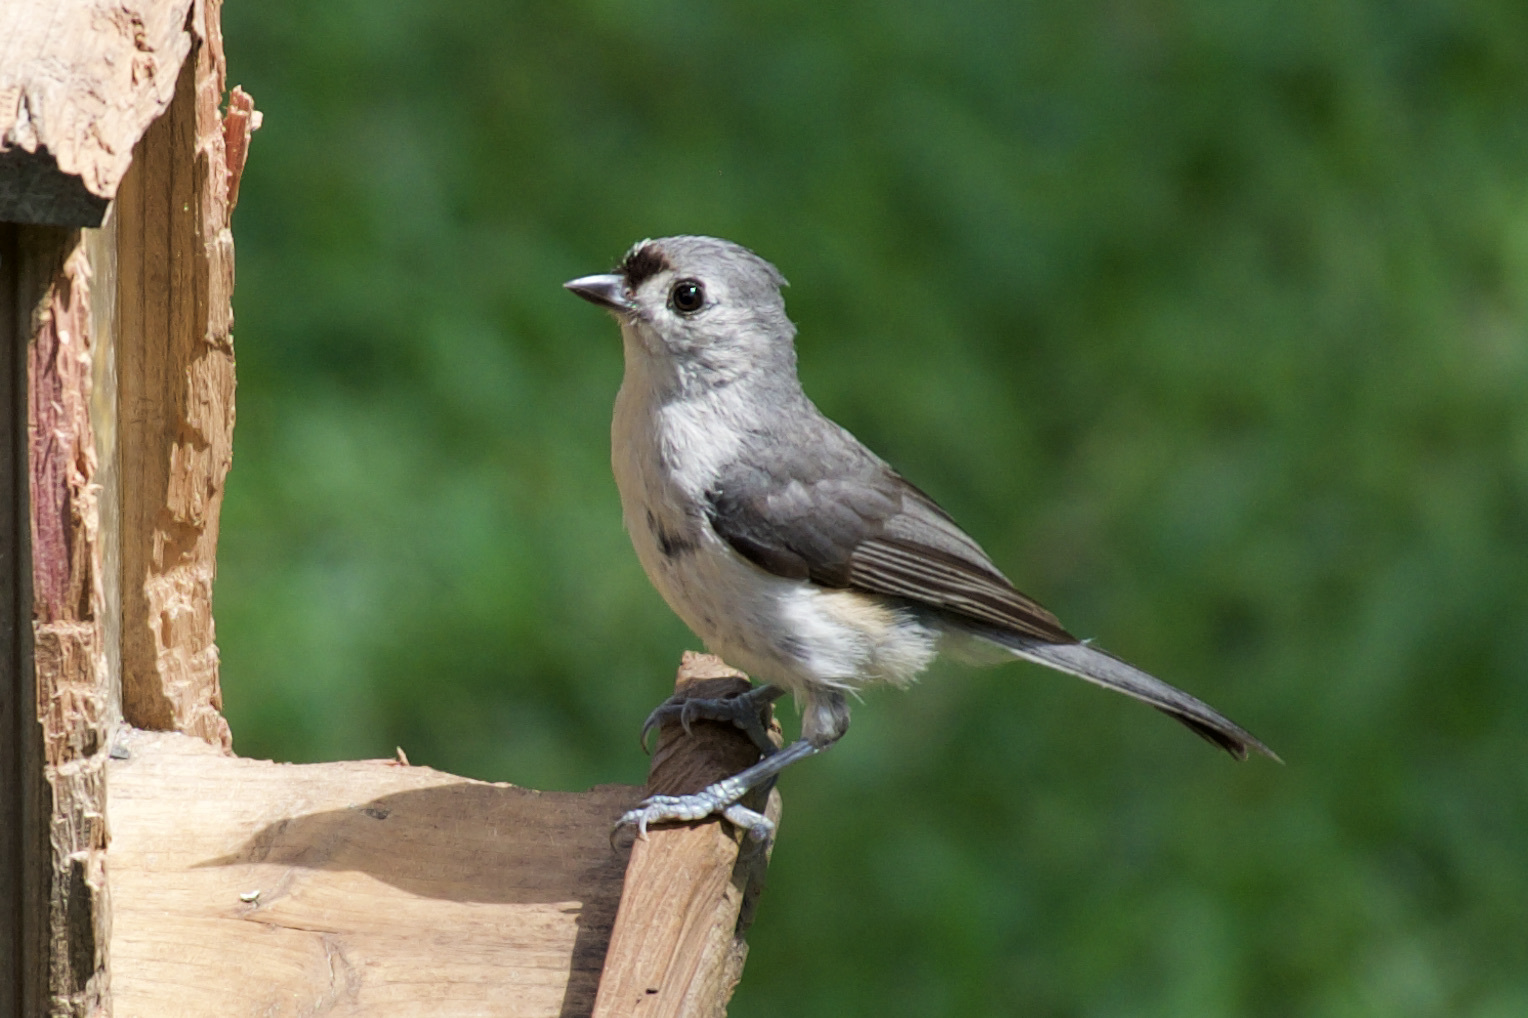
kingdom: Animalia
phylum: Chordata
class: Aves
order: Passeriformes
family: Paridae
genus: Baeolophus
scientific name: Baeolophus bicolor
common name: Tufted titmouse
